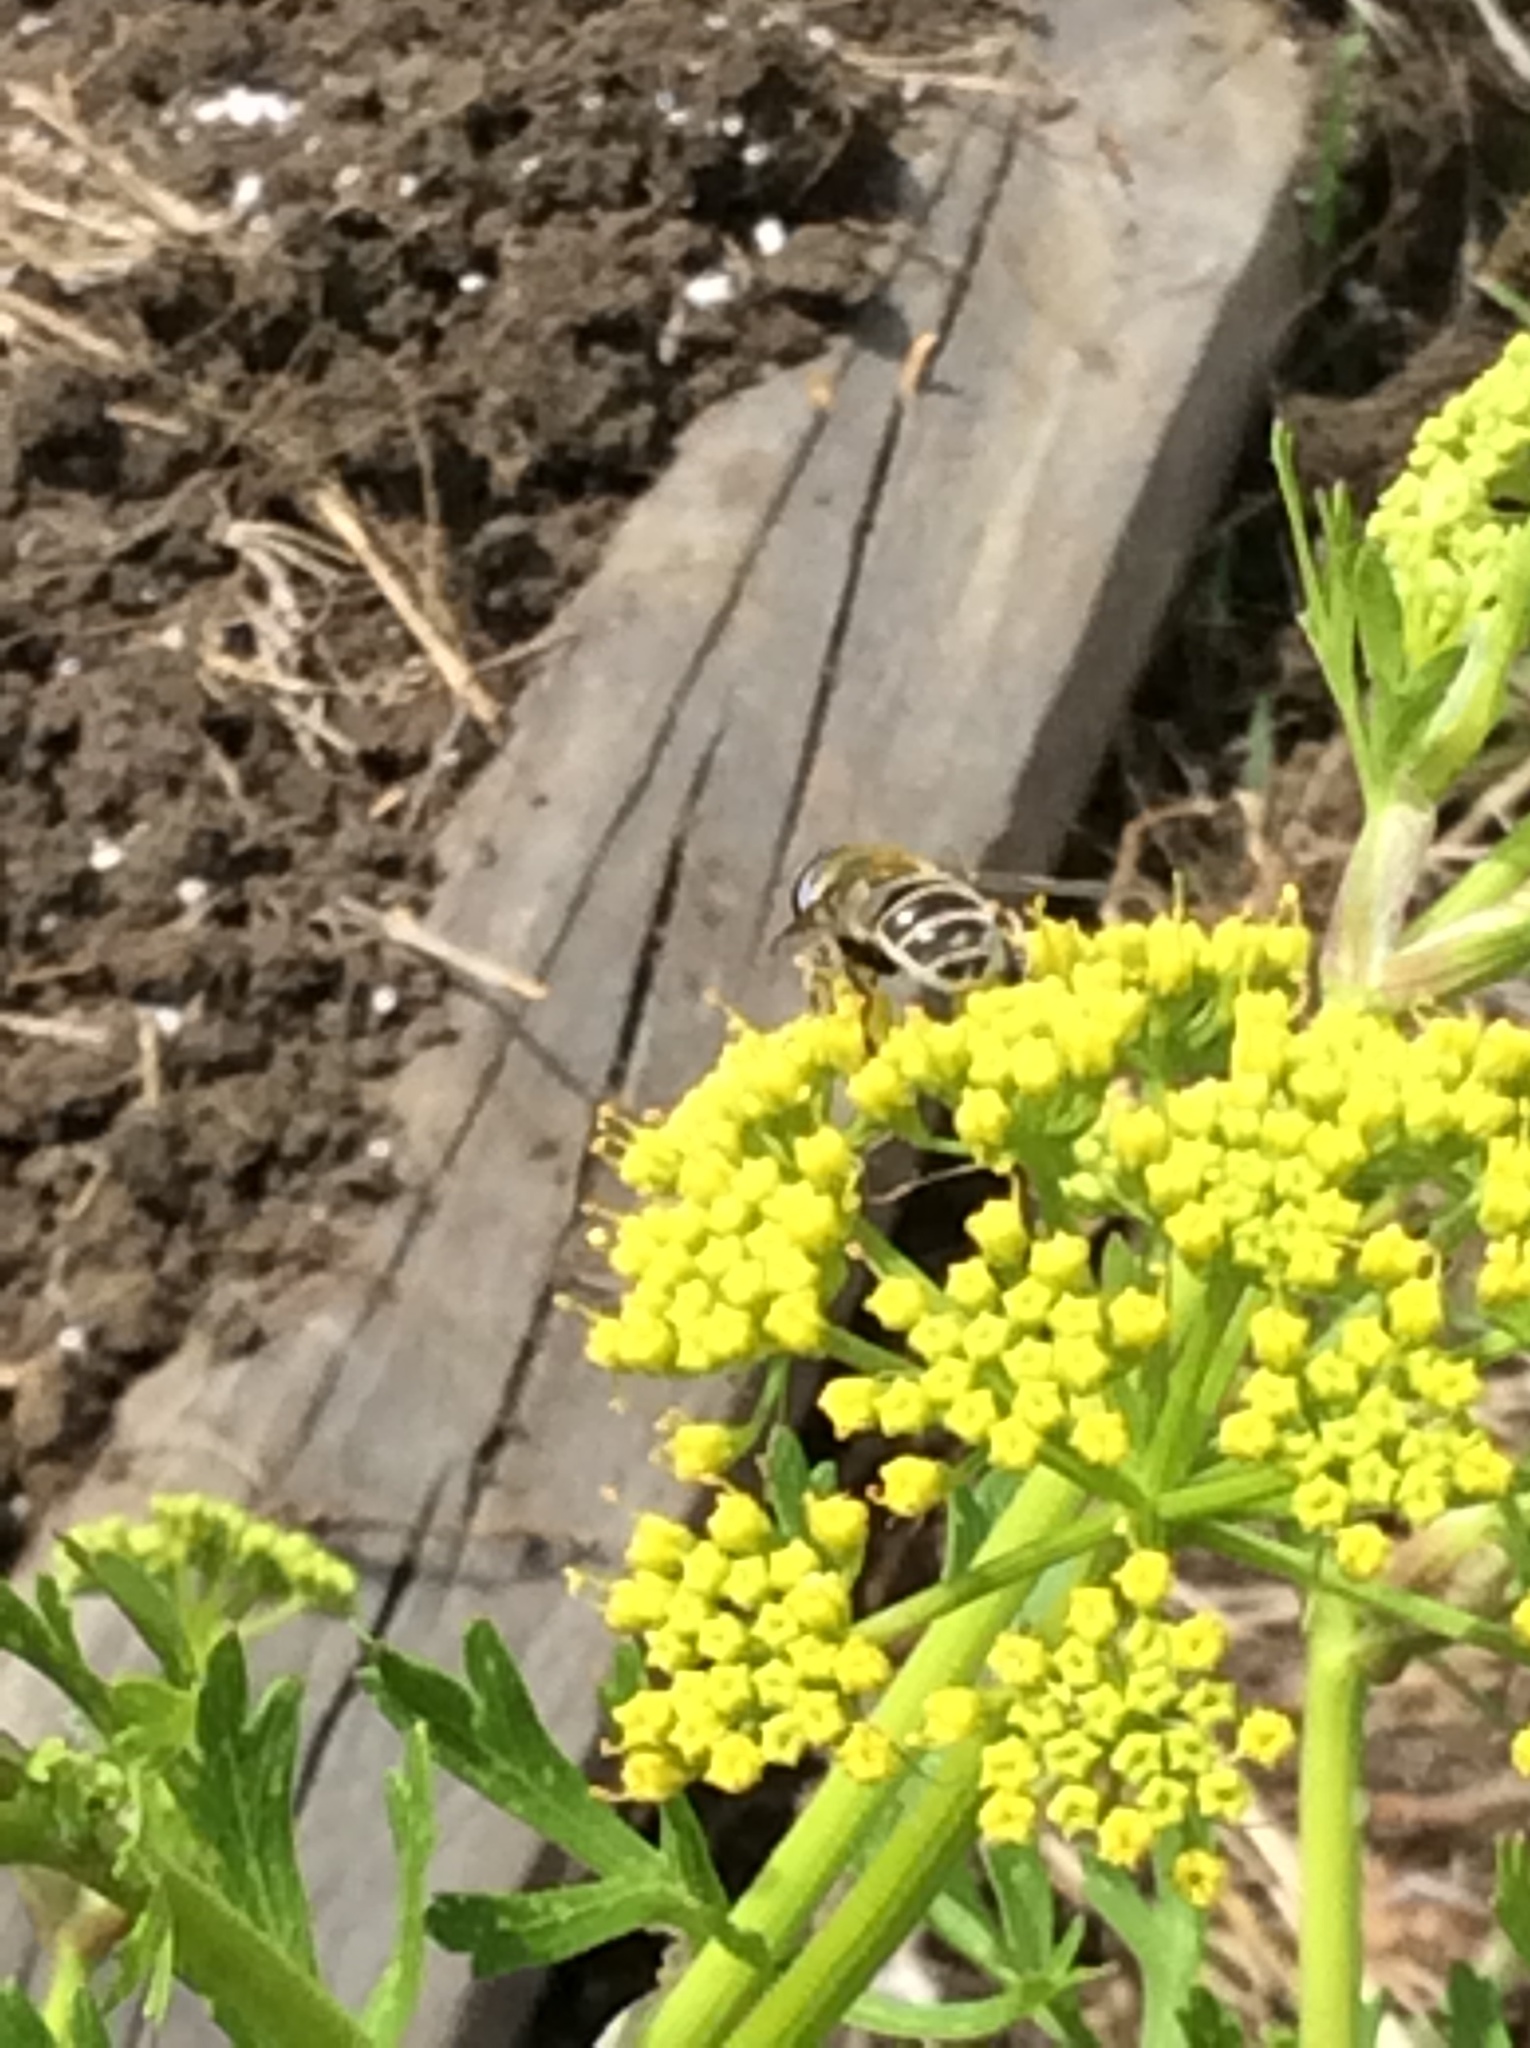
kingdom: Animalia
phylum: Arthropoda
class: Insecta
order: Diptera
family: Syrphidae
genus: Eristalis
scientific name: Eristalis stipator
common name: Yellow-shouldered drone fly
